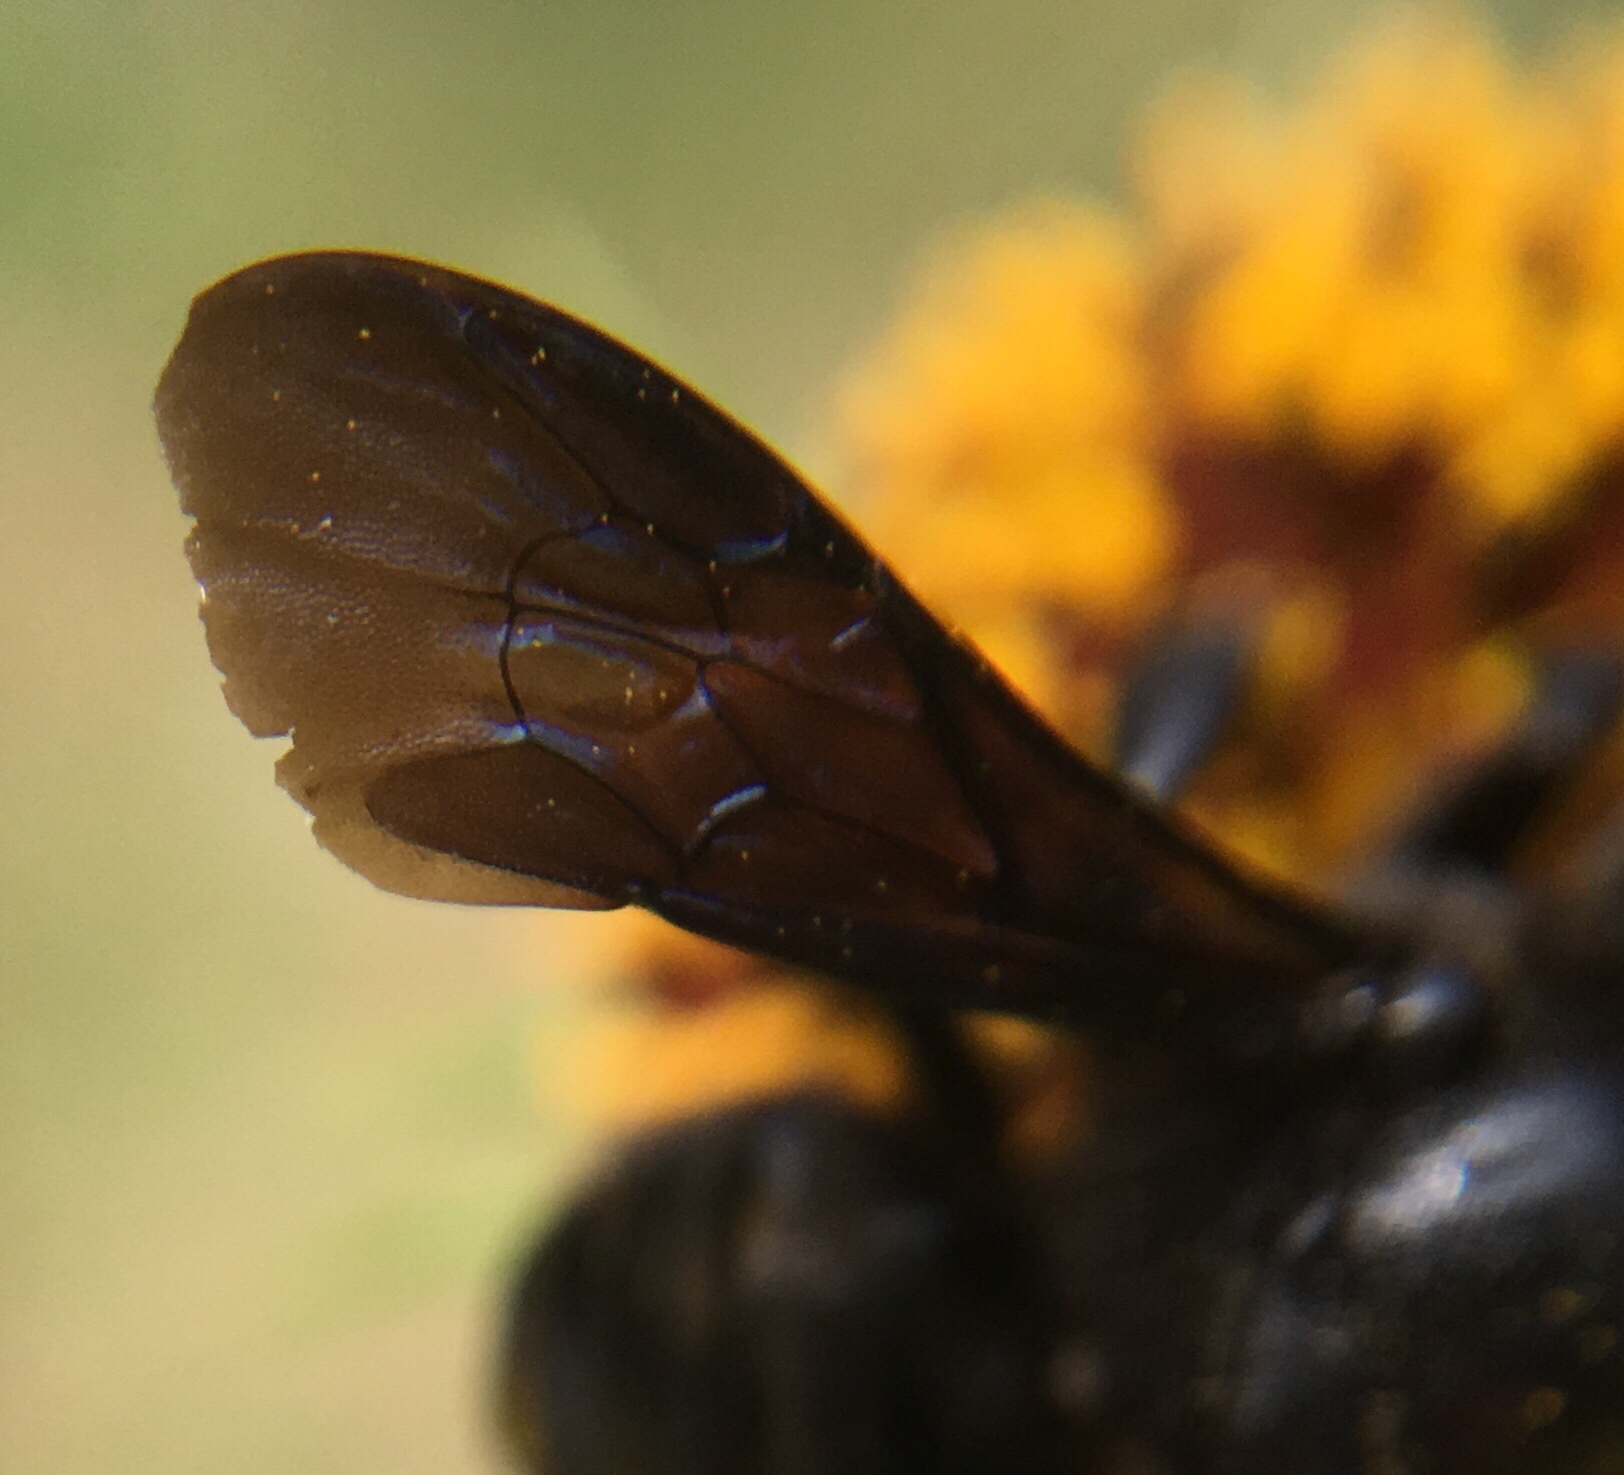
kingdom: Animalia
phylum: Arthropoda
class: Insecta
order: Hymenoptera
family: Megachilidae
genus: Megachile
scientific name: Megachile xylocopoides
